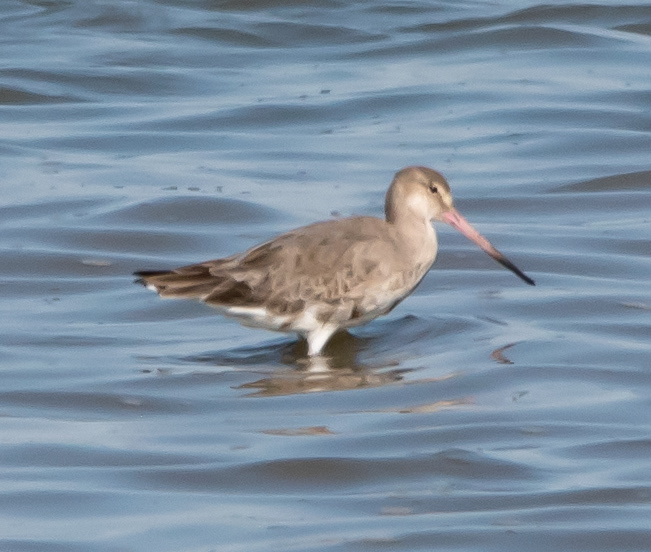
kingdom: Animalia
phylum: Chordata
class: Aves
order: Charadriiformes
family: Scolopacidae
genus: Limosa
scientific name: Limosa limosa
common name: Black-tailed godwit
